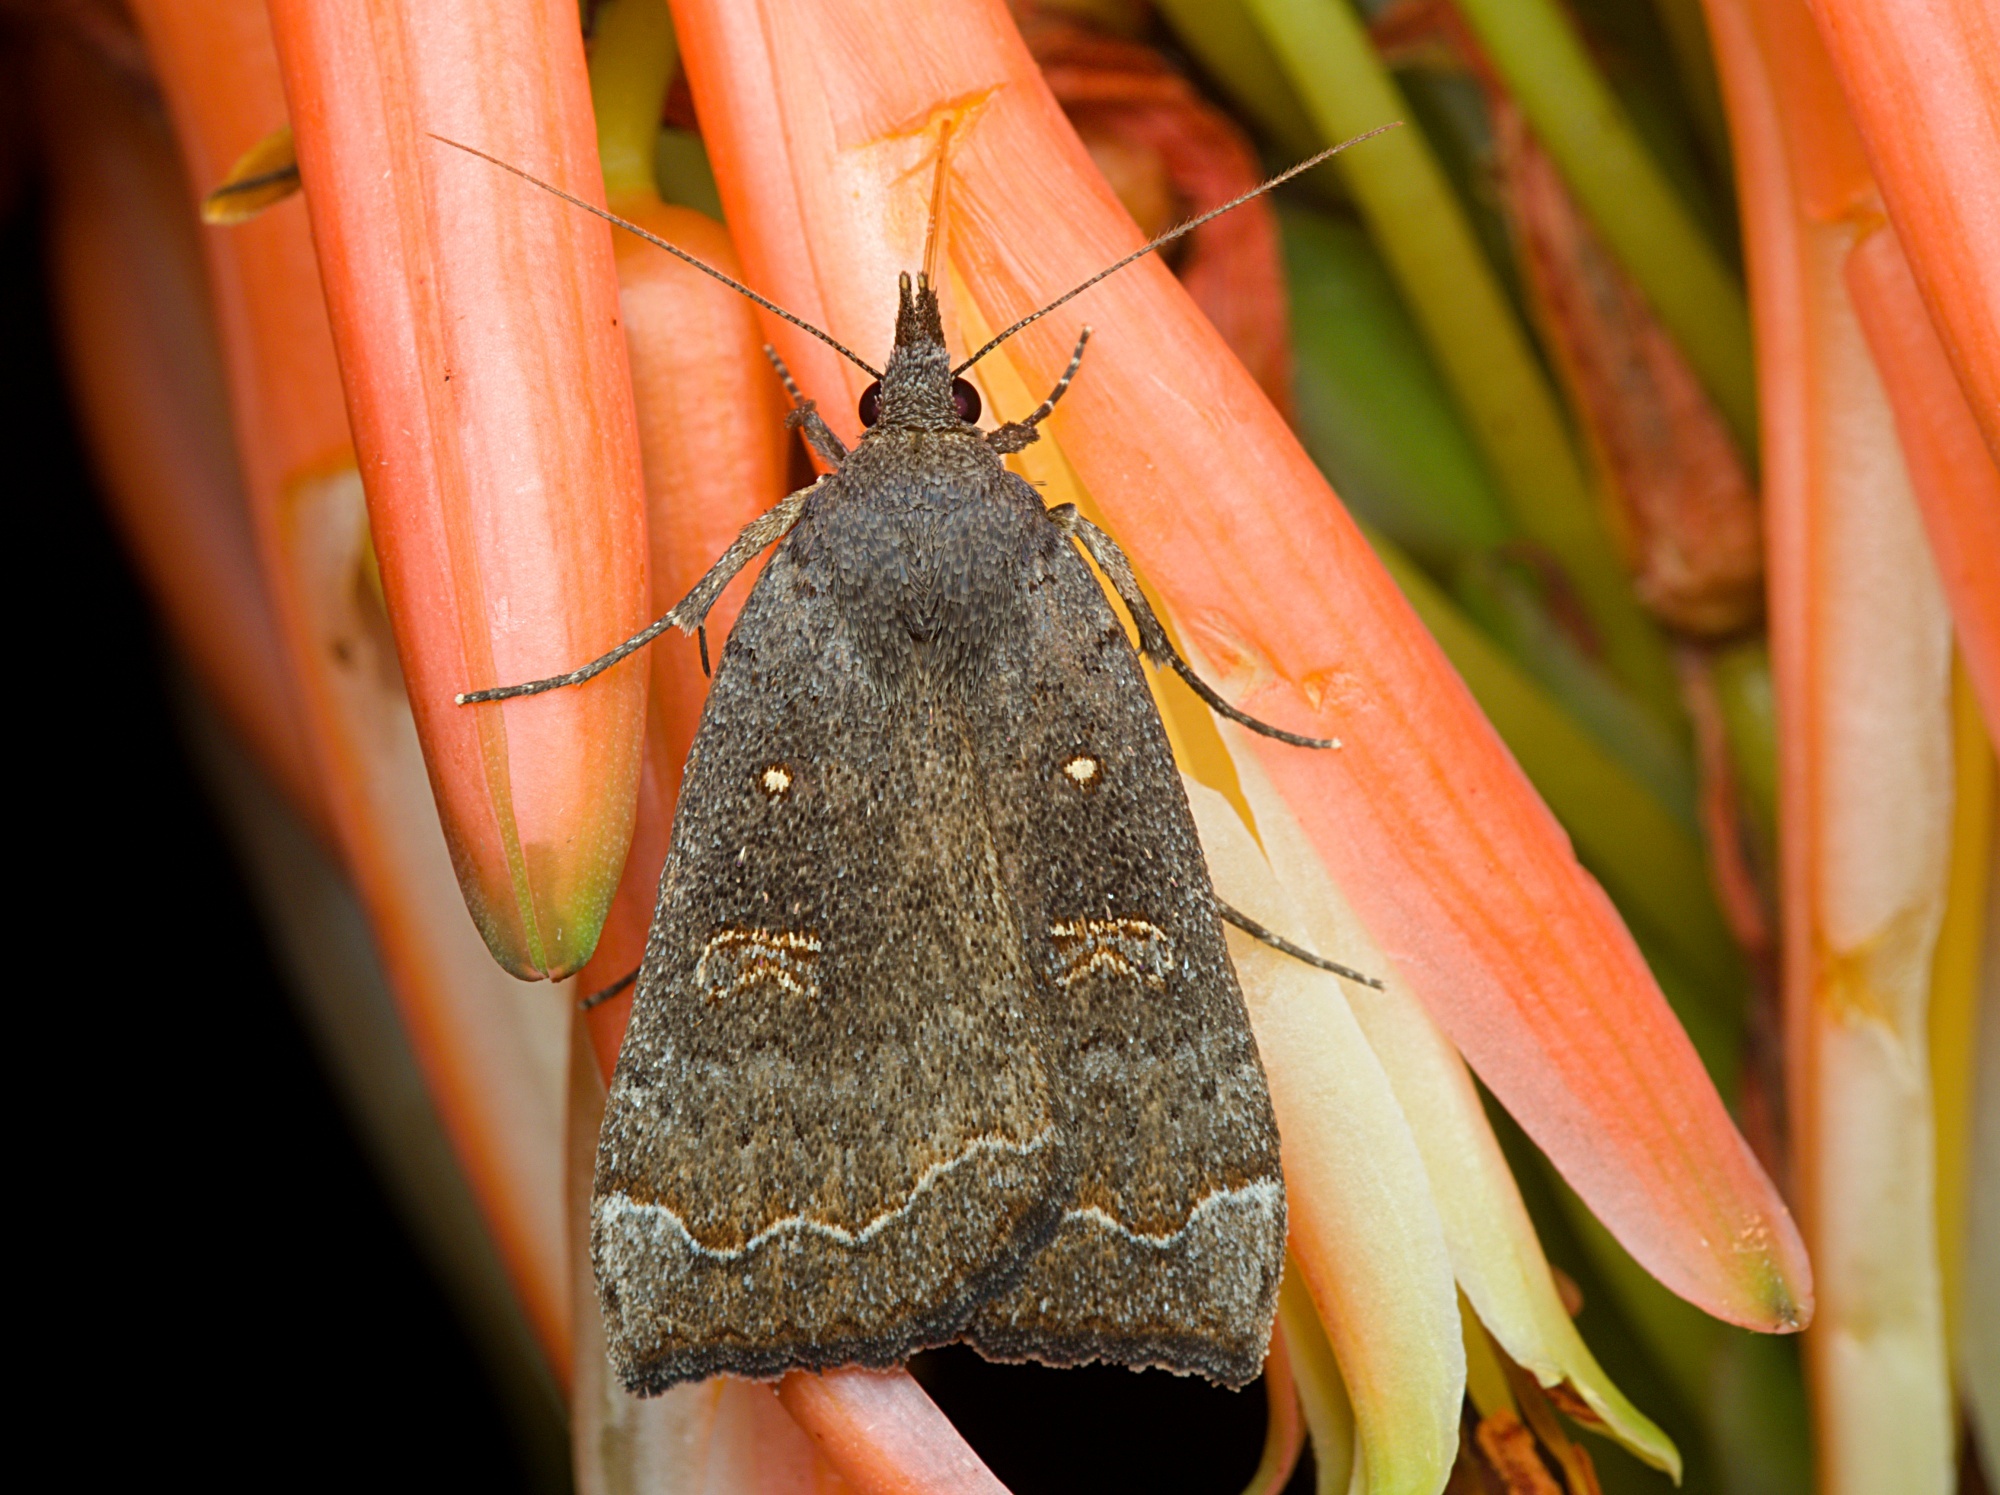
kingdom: Animalia
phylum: Arthropoda
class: Insecta
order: Lepidoptera
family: Erebidae
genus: Rhapsa
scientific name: Rhapsa scotosialis
